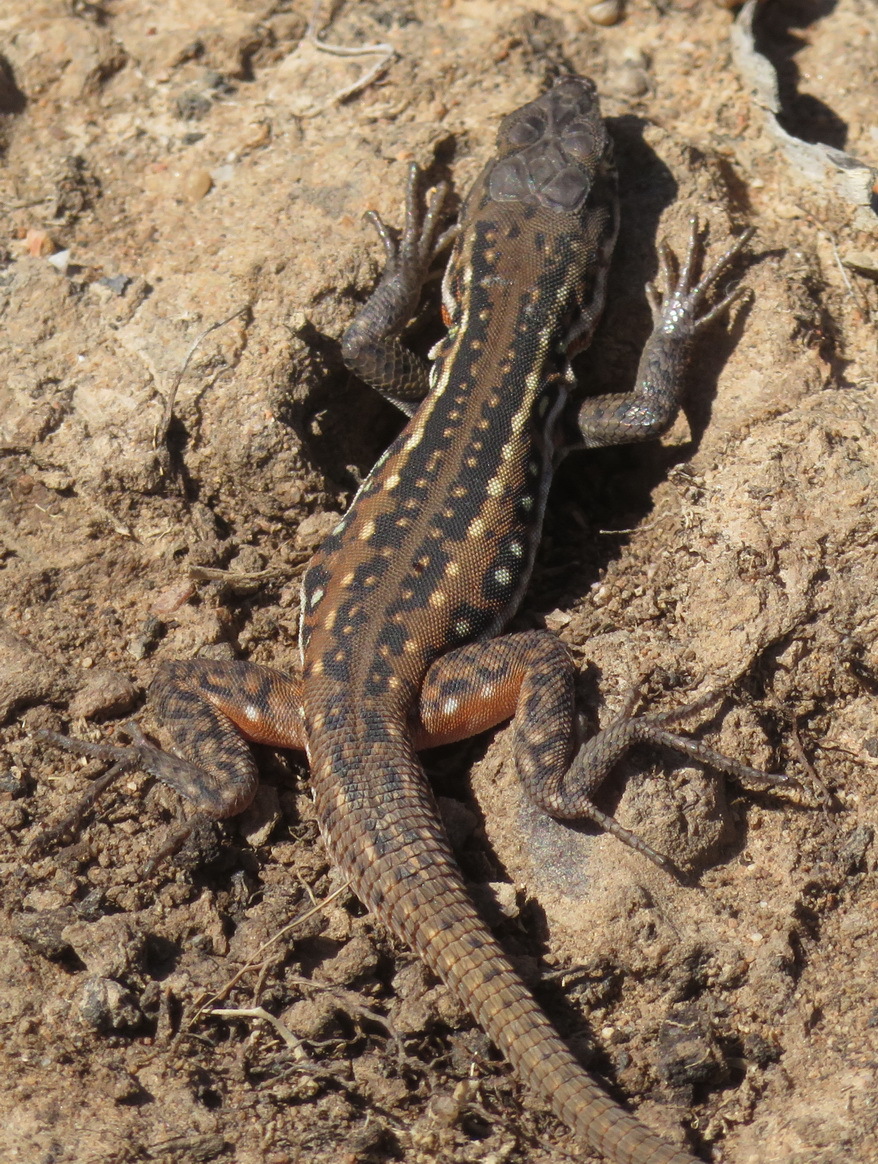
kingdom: Animalia
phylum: Chordata
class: Squamata
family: Lacertidae
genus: Pedioplanis
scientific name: Pedioplanis lineoocellata
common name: Spotted sand lizard
